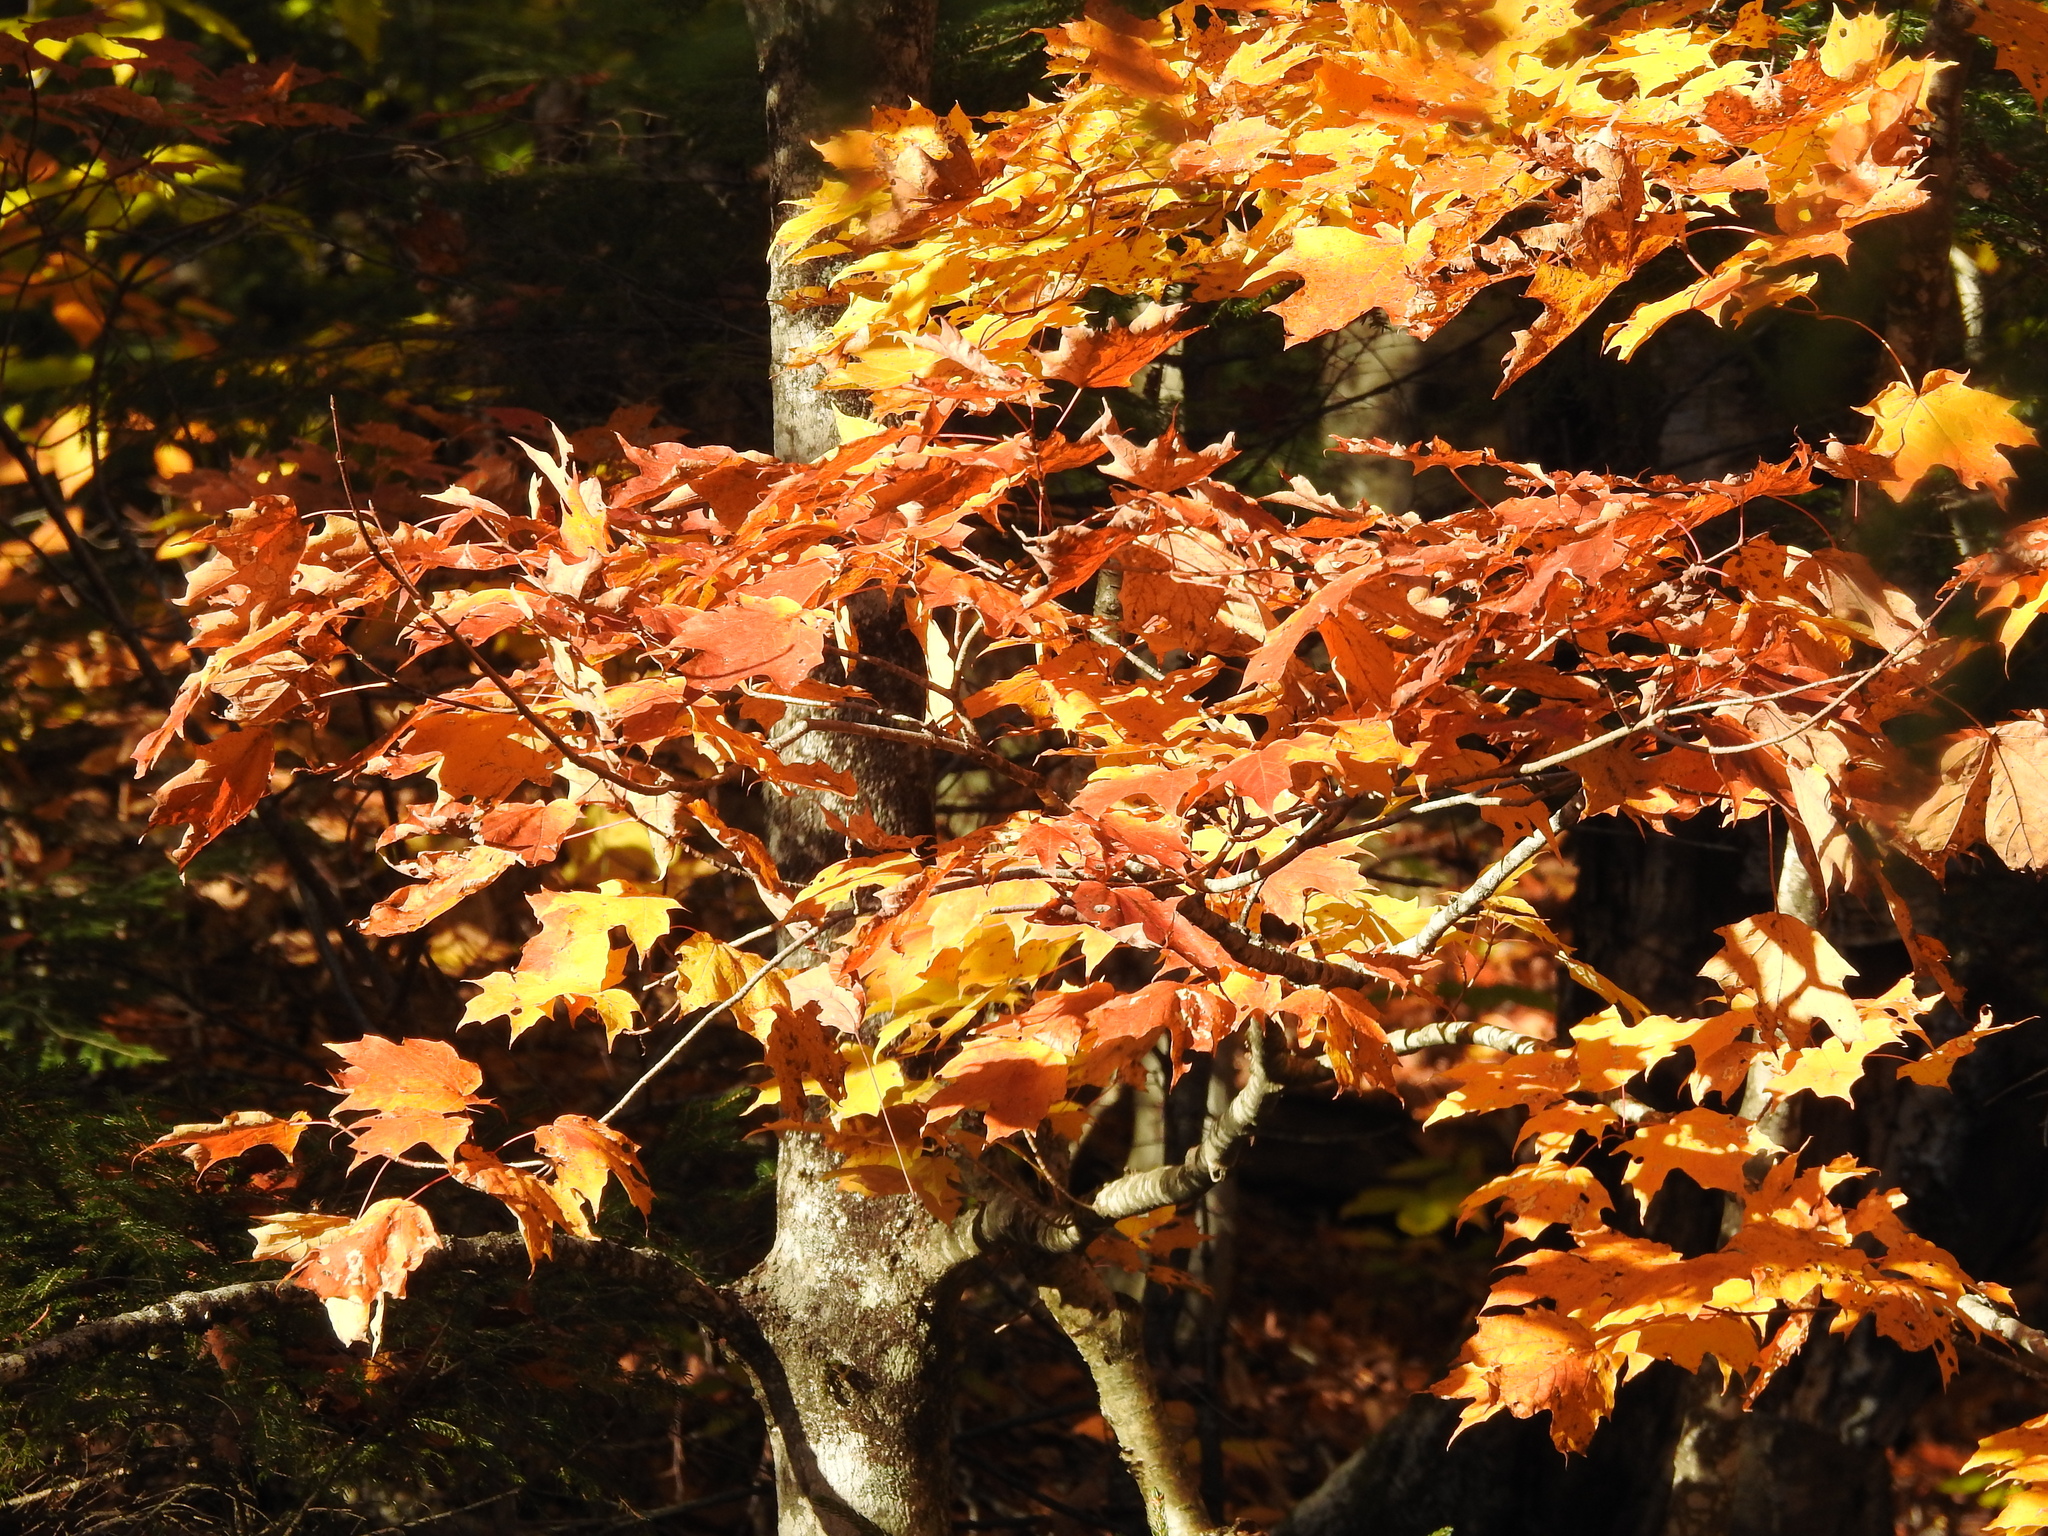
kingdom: Plantae
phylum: Tracheophyta
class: Magnoliopsida
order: Sapindales
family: Sapindaceae
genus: Acer
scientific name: Acer saccharum
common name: Sugar maple
